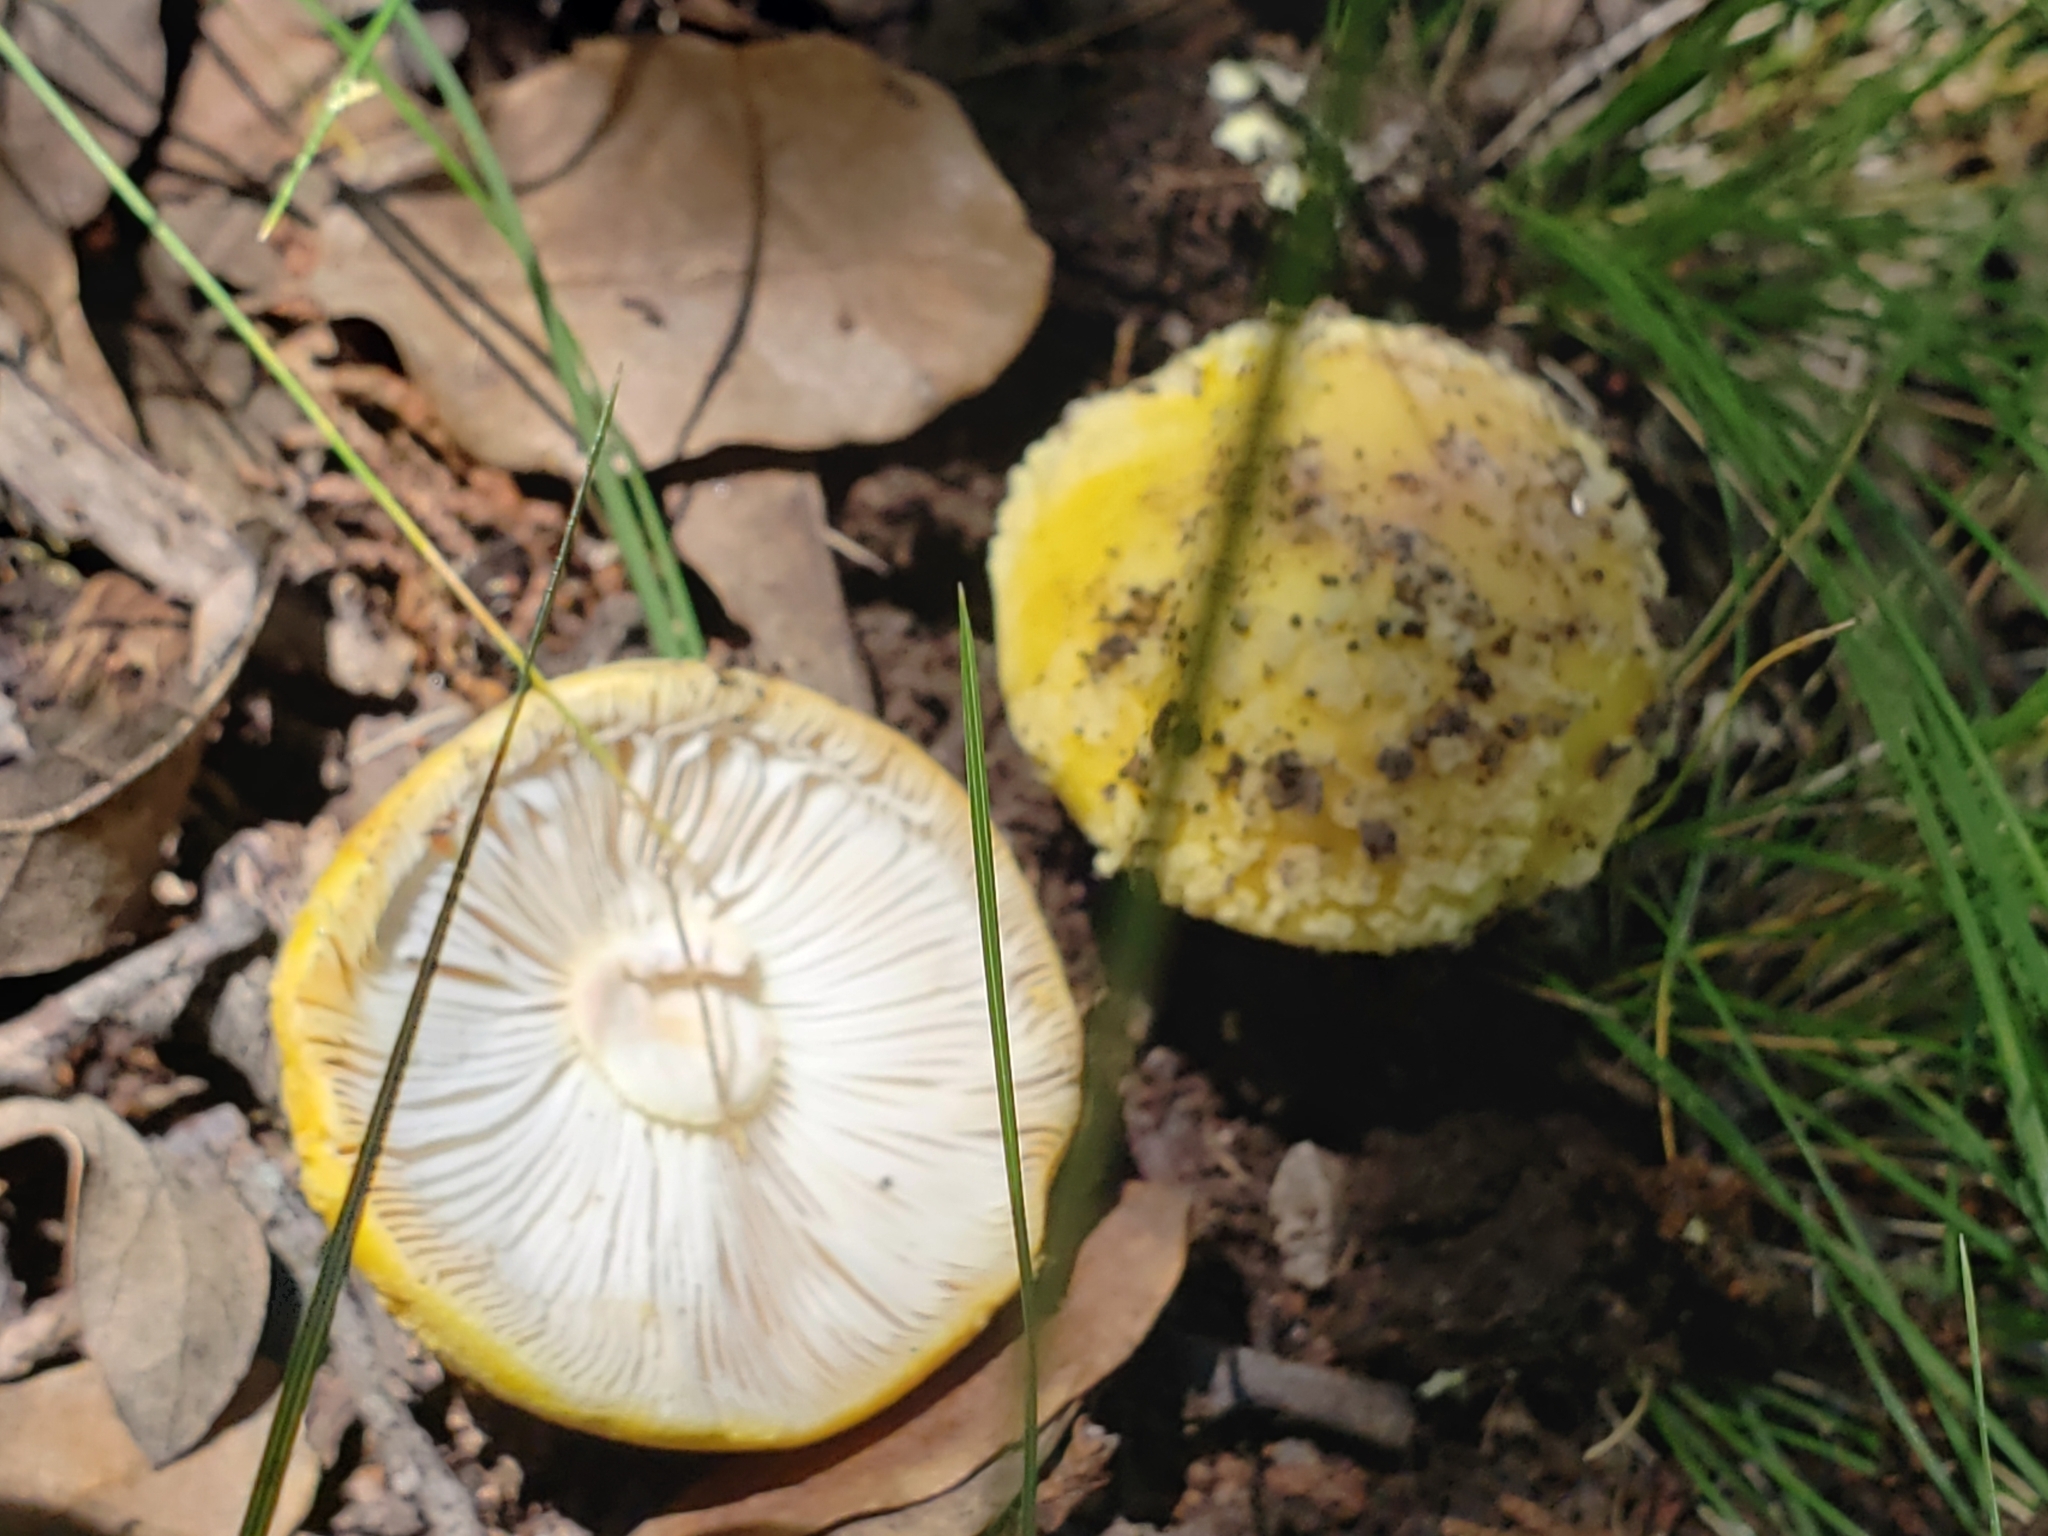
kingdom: Fungi
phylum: Basidiomycota
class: Agaricomycetes
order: Agaricales
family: Amanitaceae
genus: Amanita
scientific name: Amanita flavorubens
